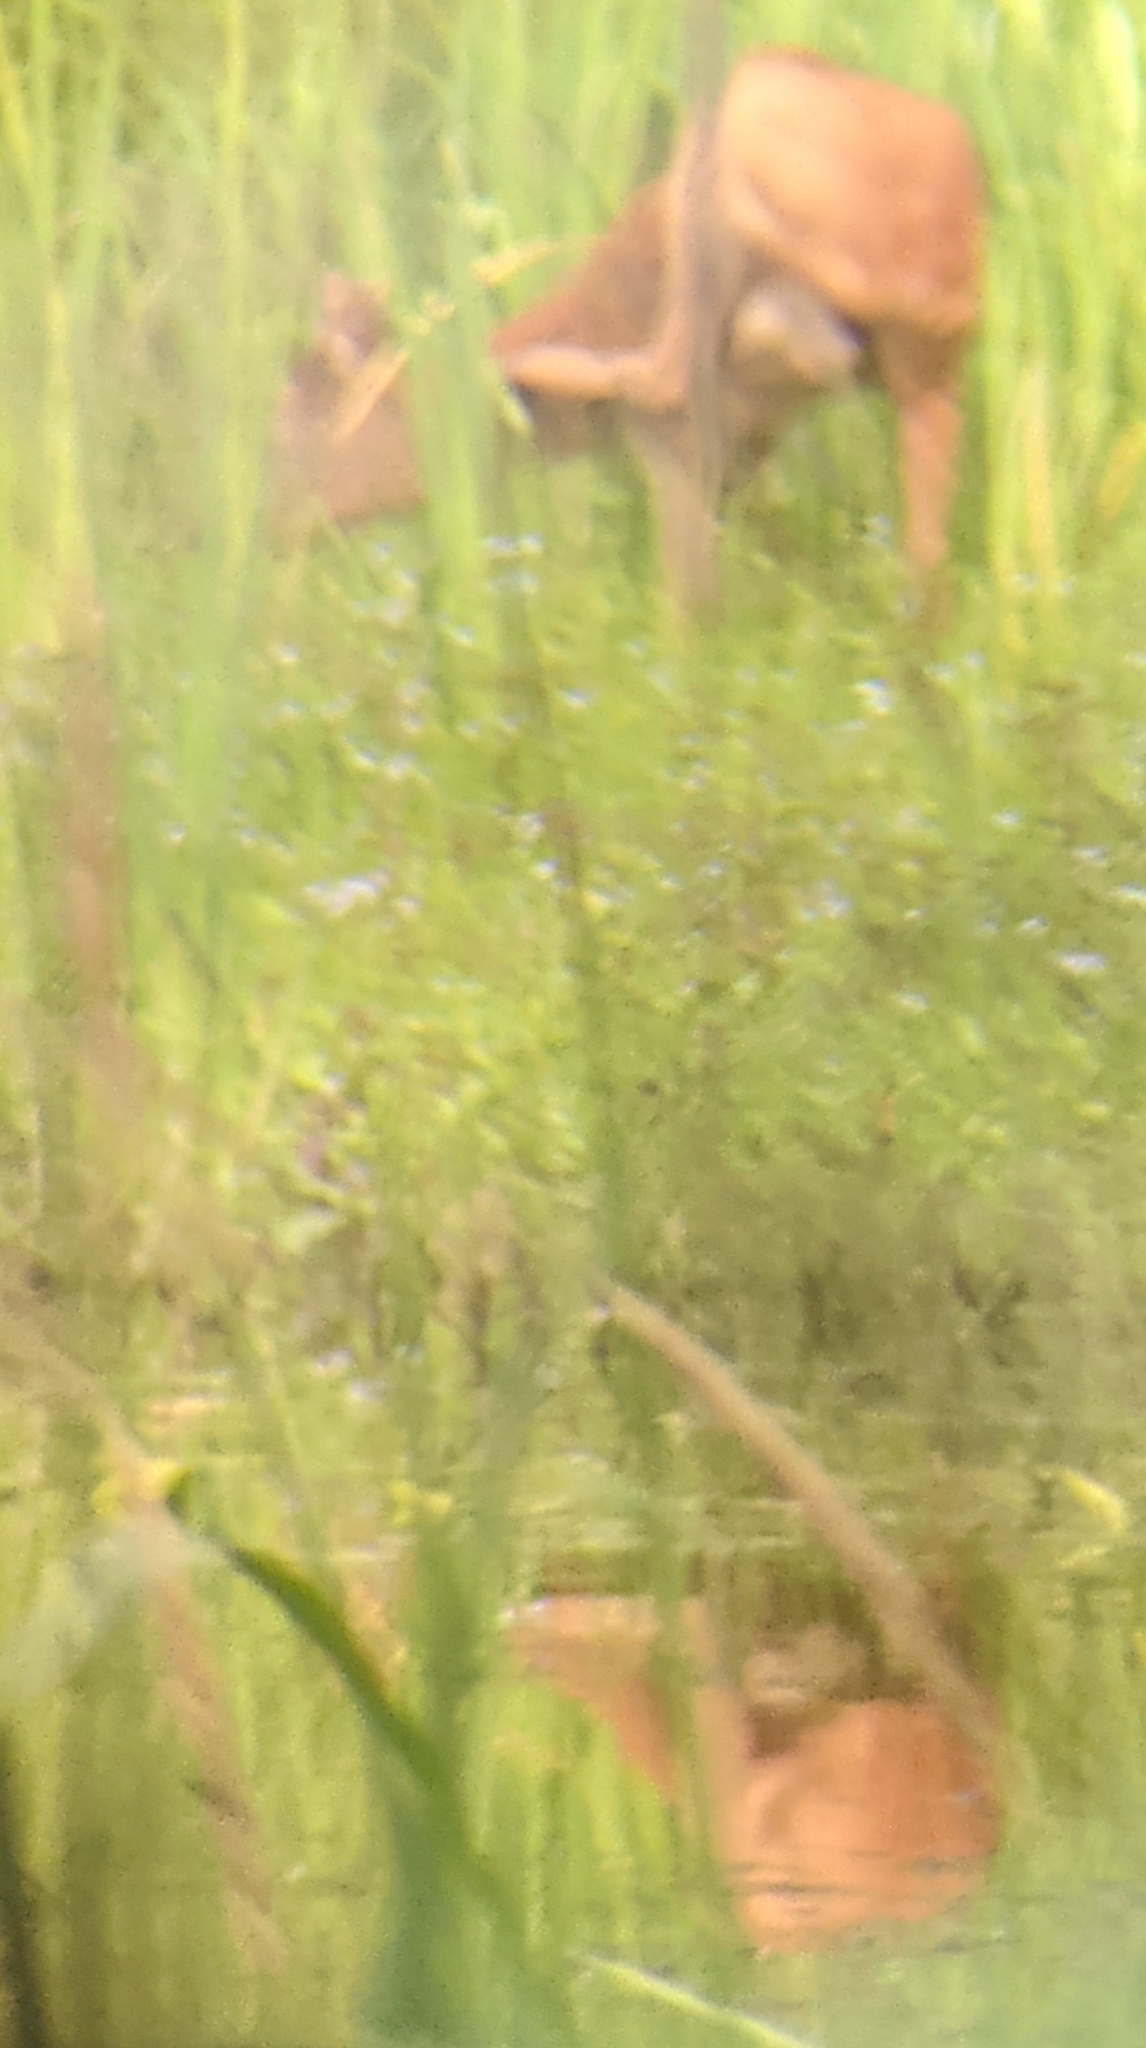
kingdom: Animalia
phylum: Chordata
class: Mammalia
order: Artiodactyla
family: Cervidae
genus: Capreolus
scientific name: Capreolus capreolus
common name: Western roe deer
